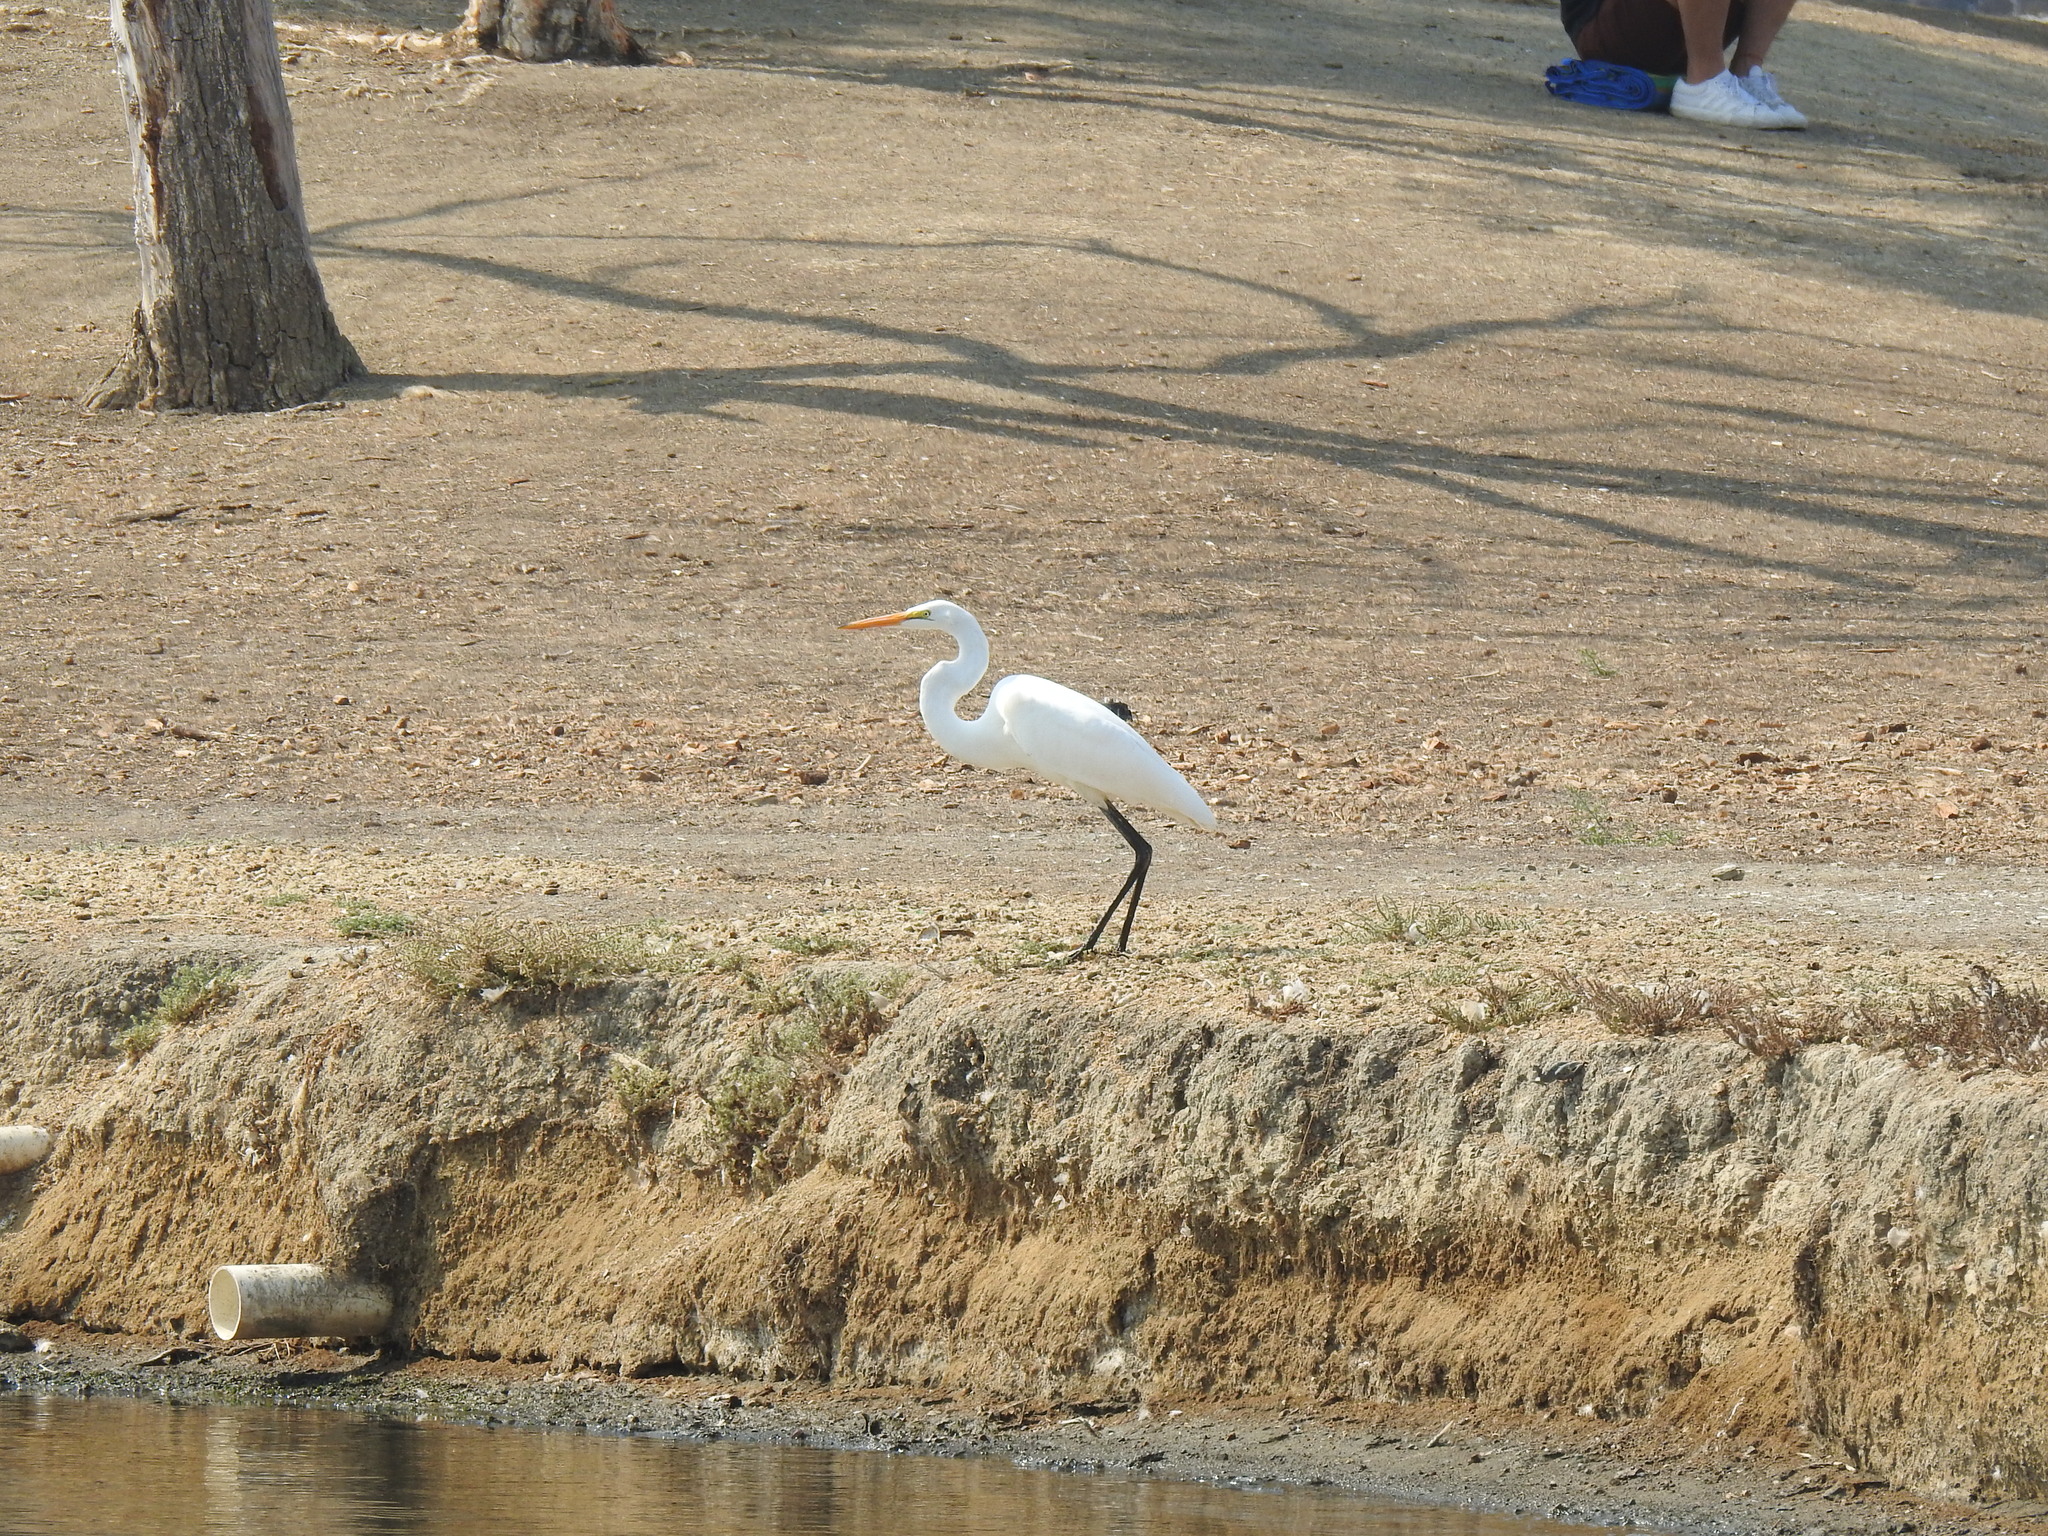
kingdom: Animalia
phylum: Chordata
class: Aves
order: Pelecaniformes
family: Ardeidae
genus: Ardea
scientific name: Ardea alba
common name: Great egret
